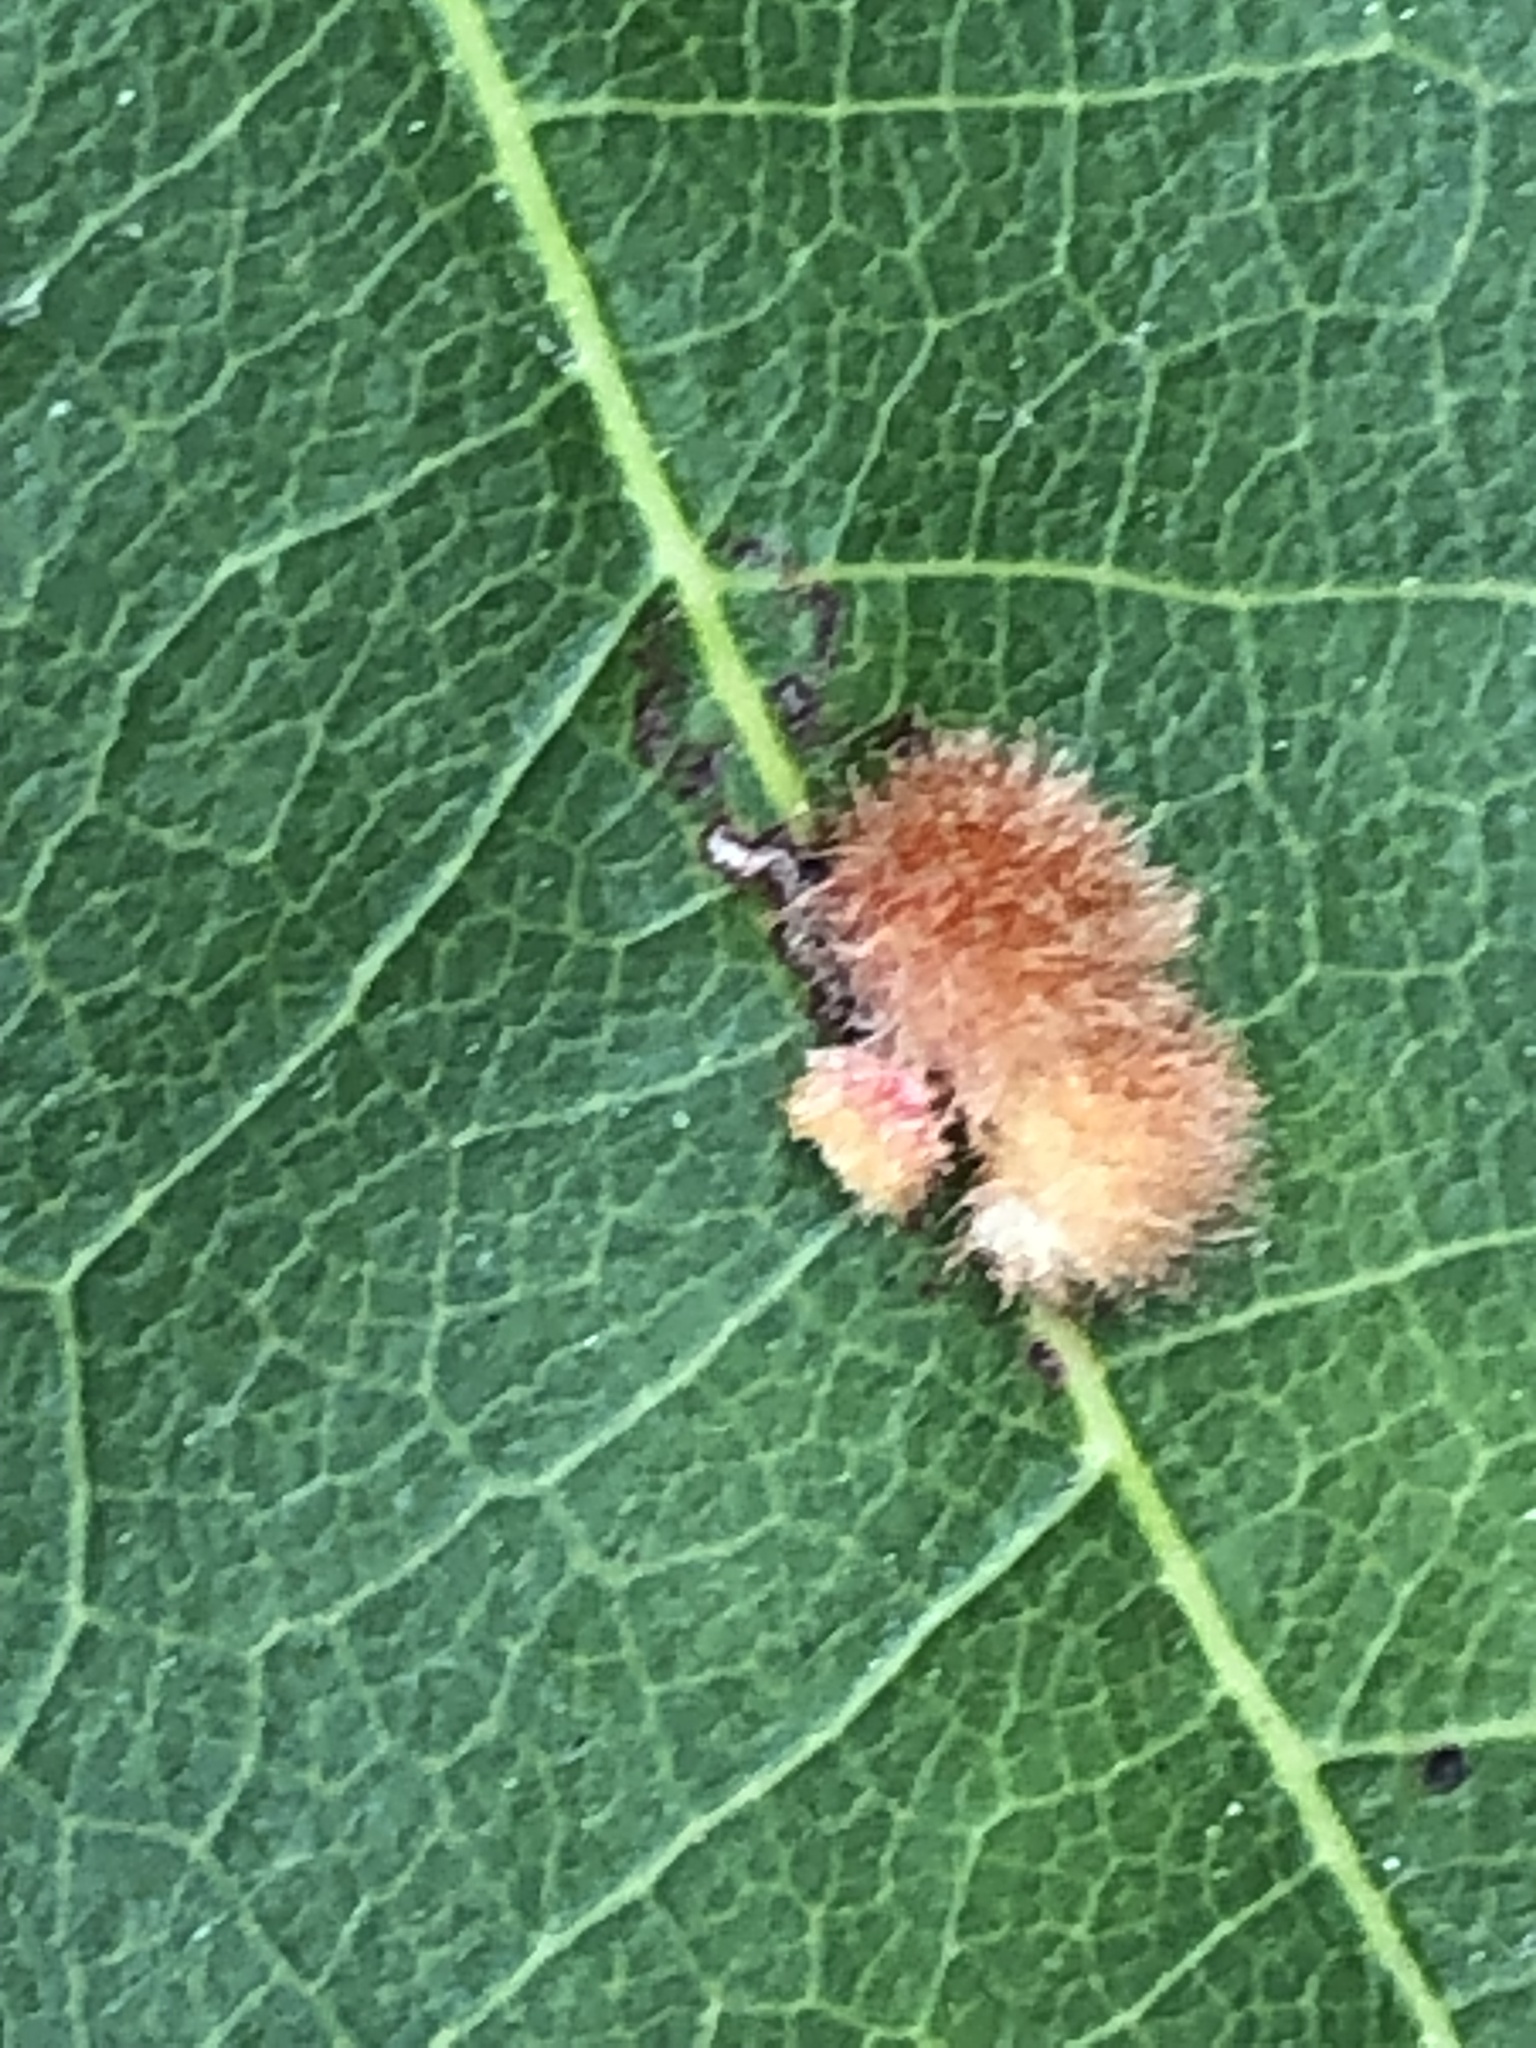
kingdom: Animalia
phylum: Arthropoda
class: Insecta
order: Hymenoptera
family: Cynipidae
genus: Callirhytis
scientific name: Callirhytis
